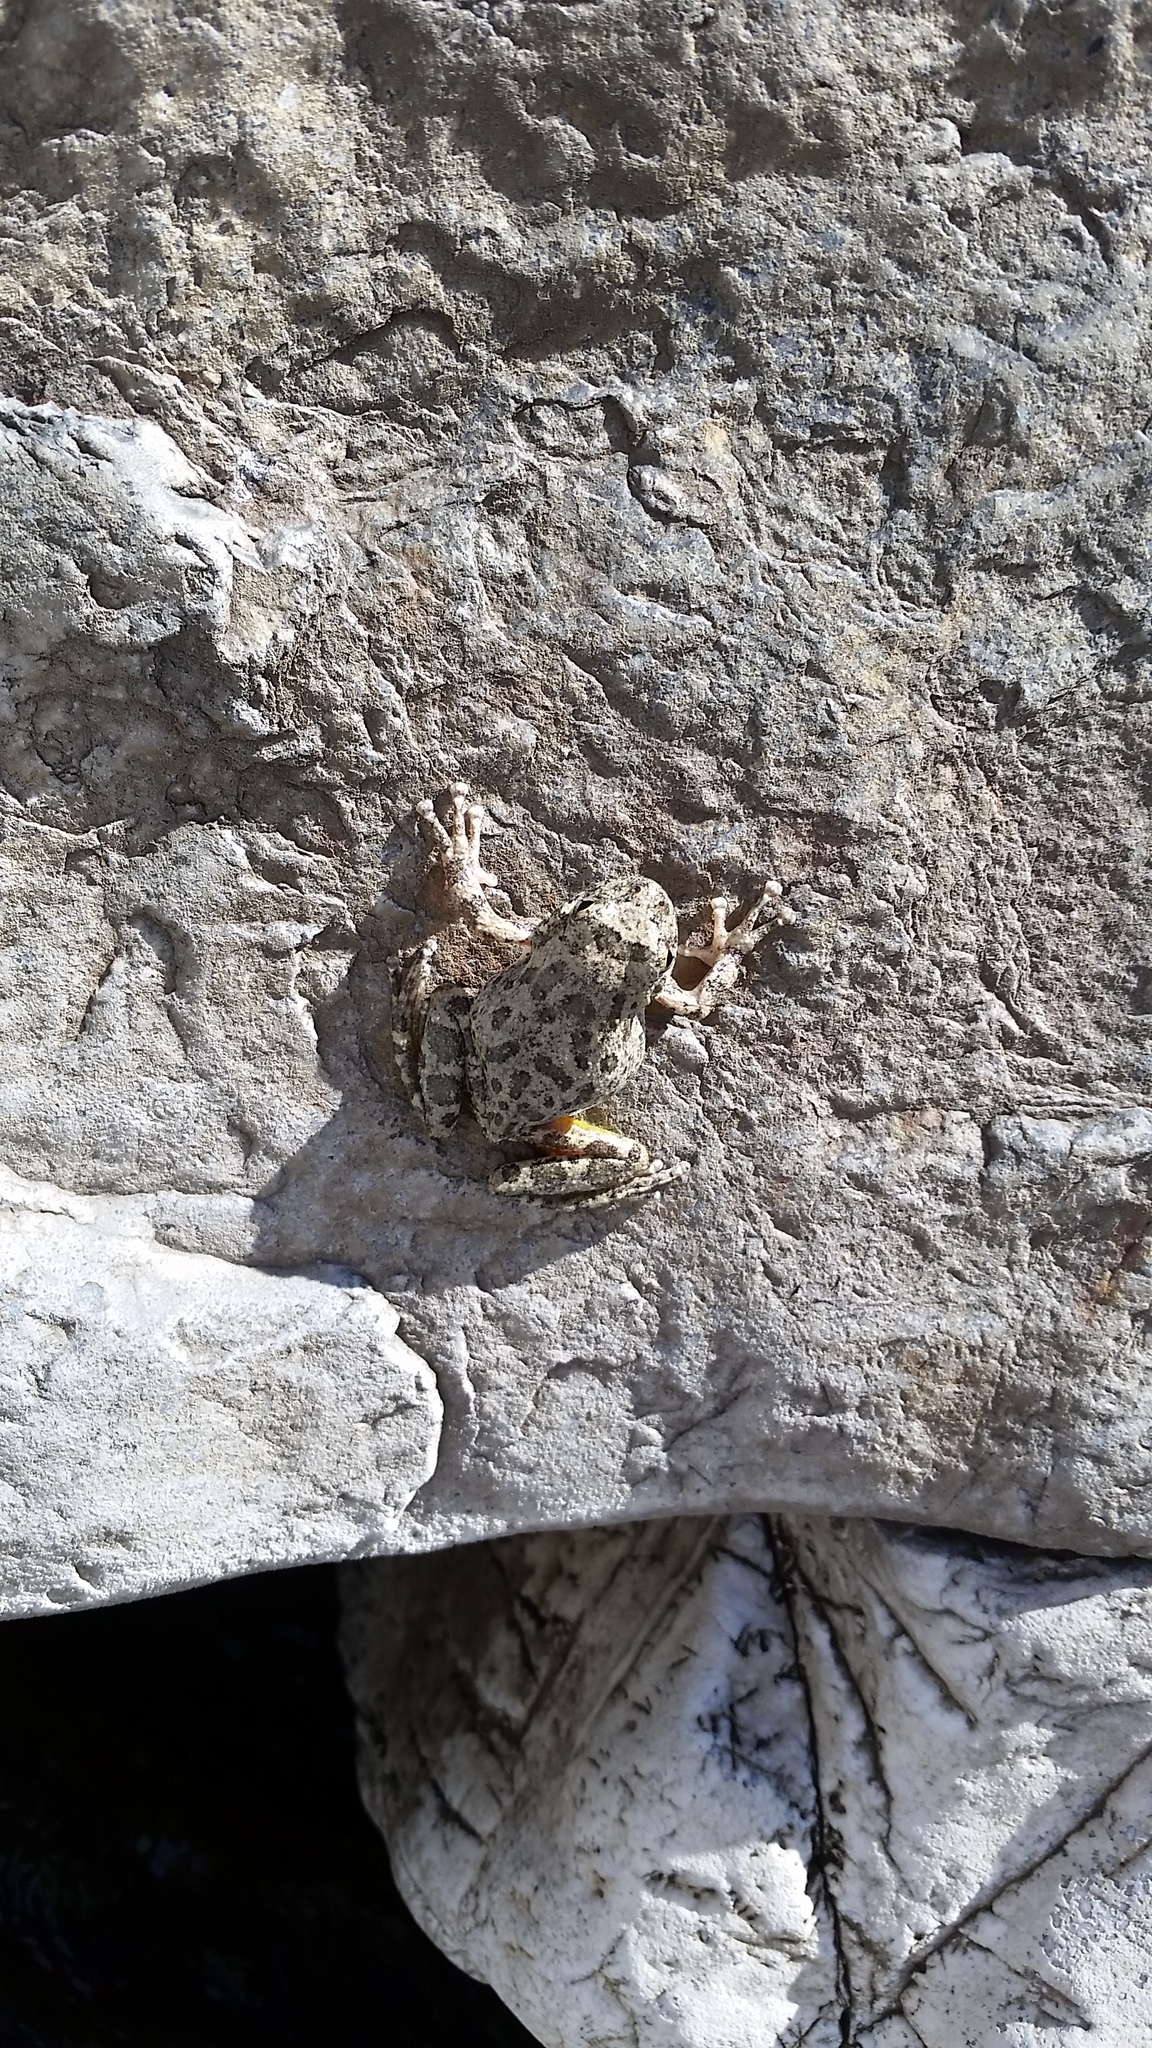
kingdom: Animalia
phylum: Chordata
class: Amphibia
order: Anura
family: Hylidae
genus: Pseudacris
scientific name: Pseudacris cadaverina
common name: California chorus frog
